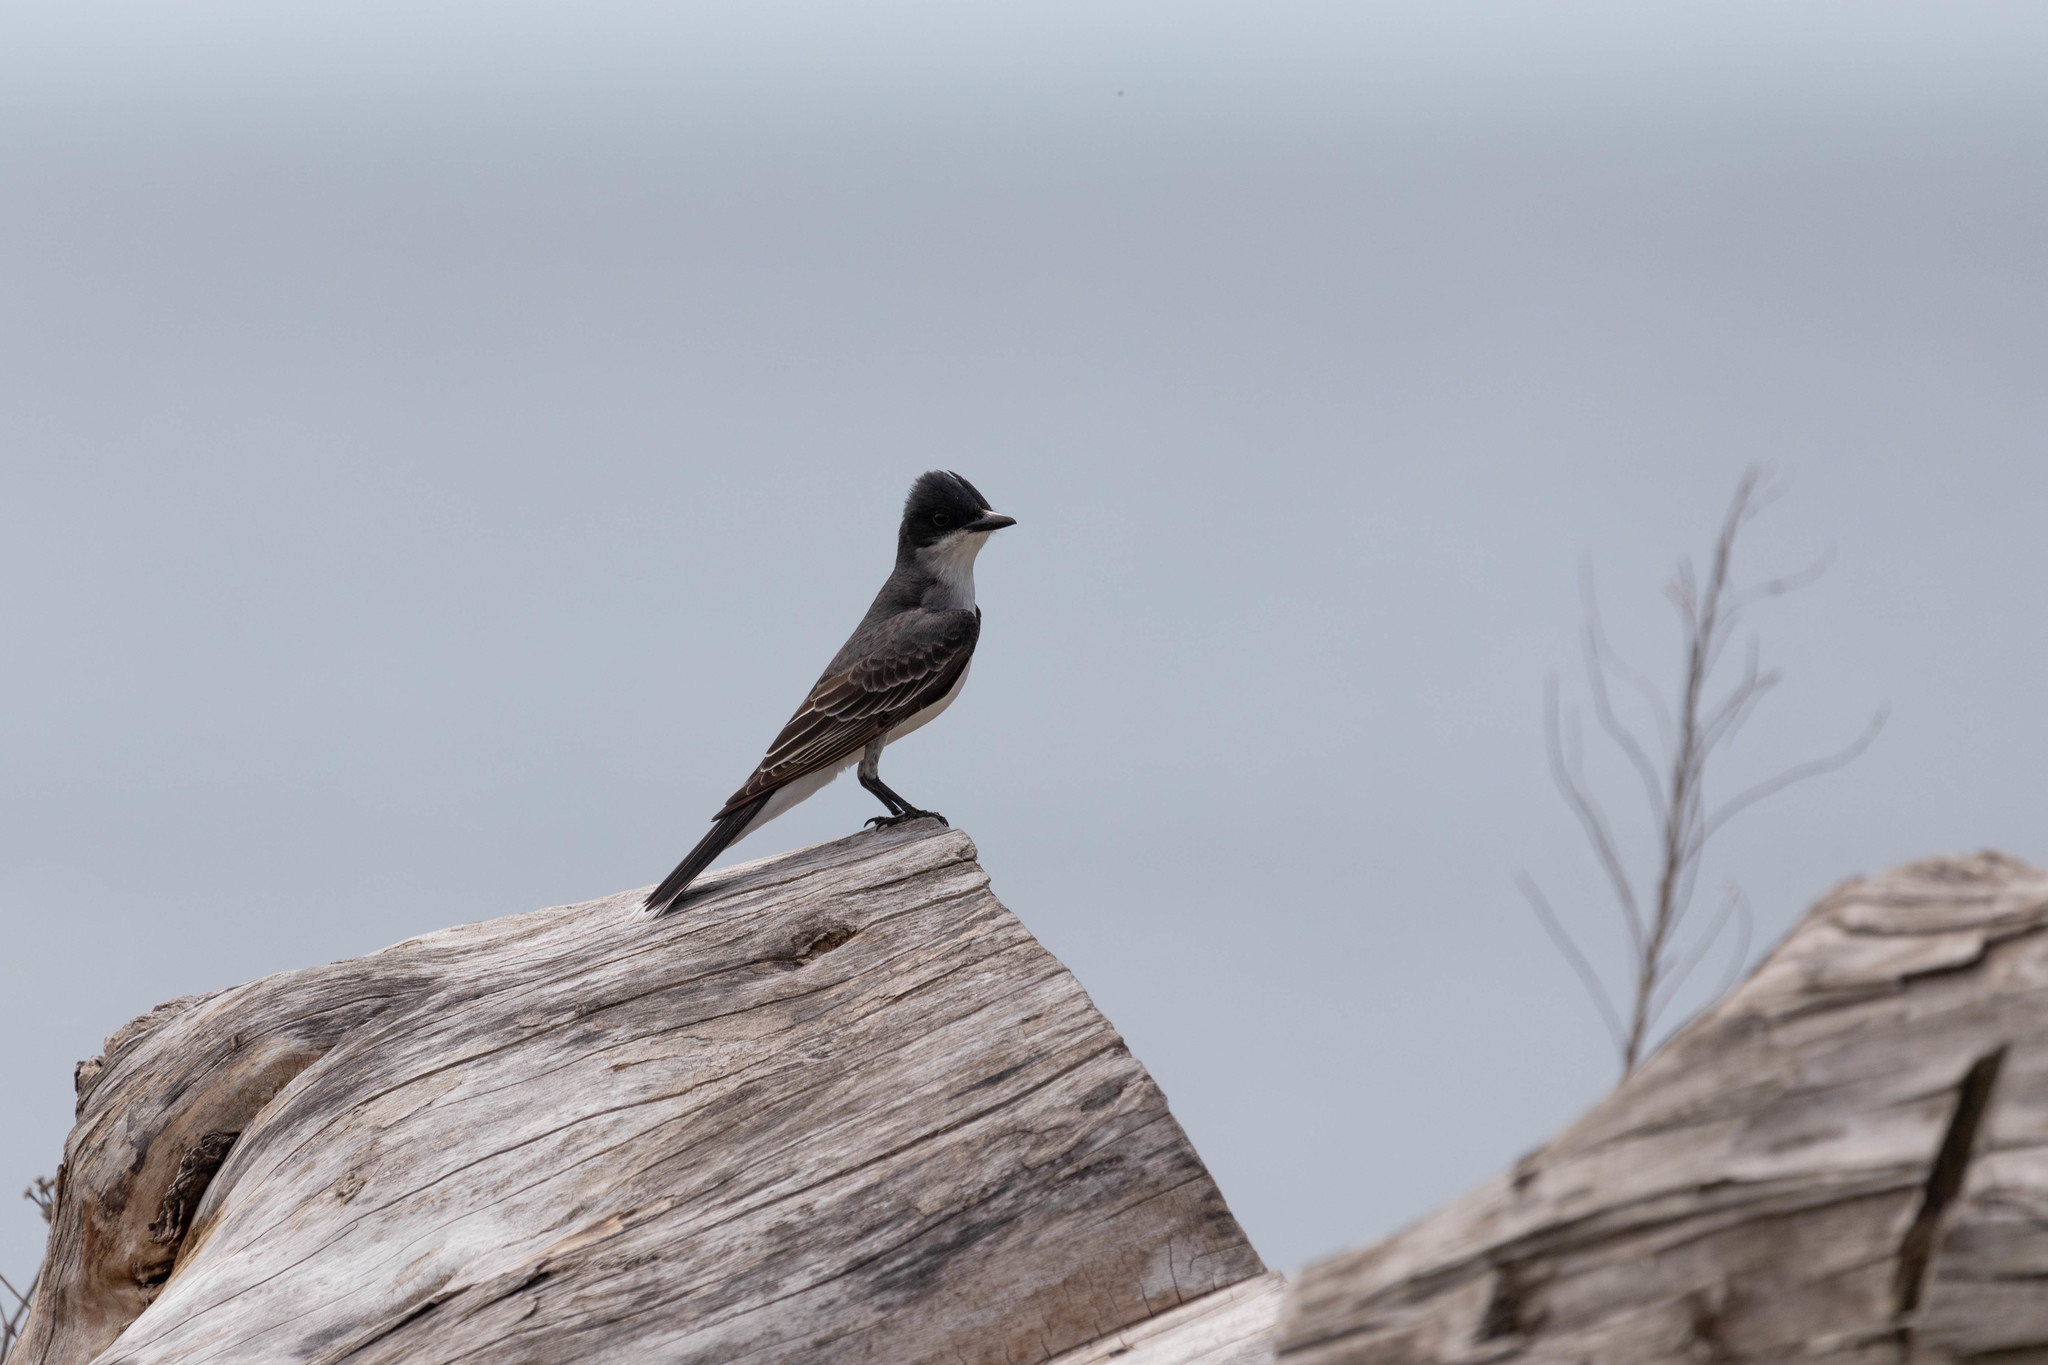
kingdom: Animalia
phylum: Chordata
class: Aves
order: Passeriformes
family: Tyrannidae
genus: Tyrannus
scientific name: Tyrannus tyrannus
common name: Eastern kingbird
